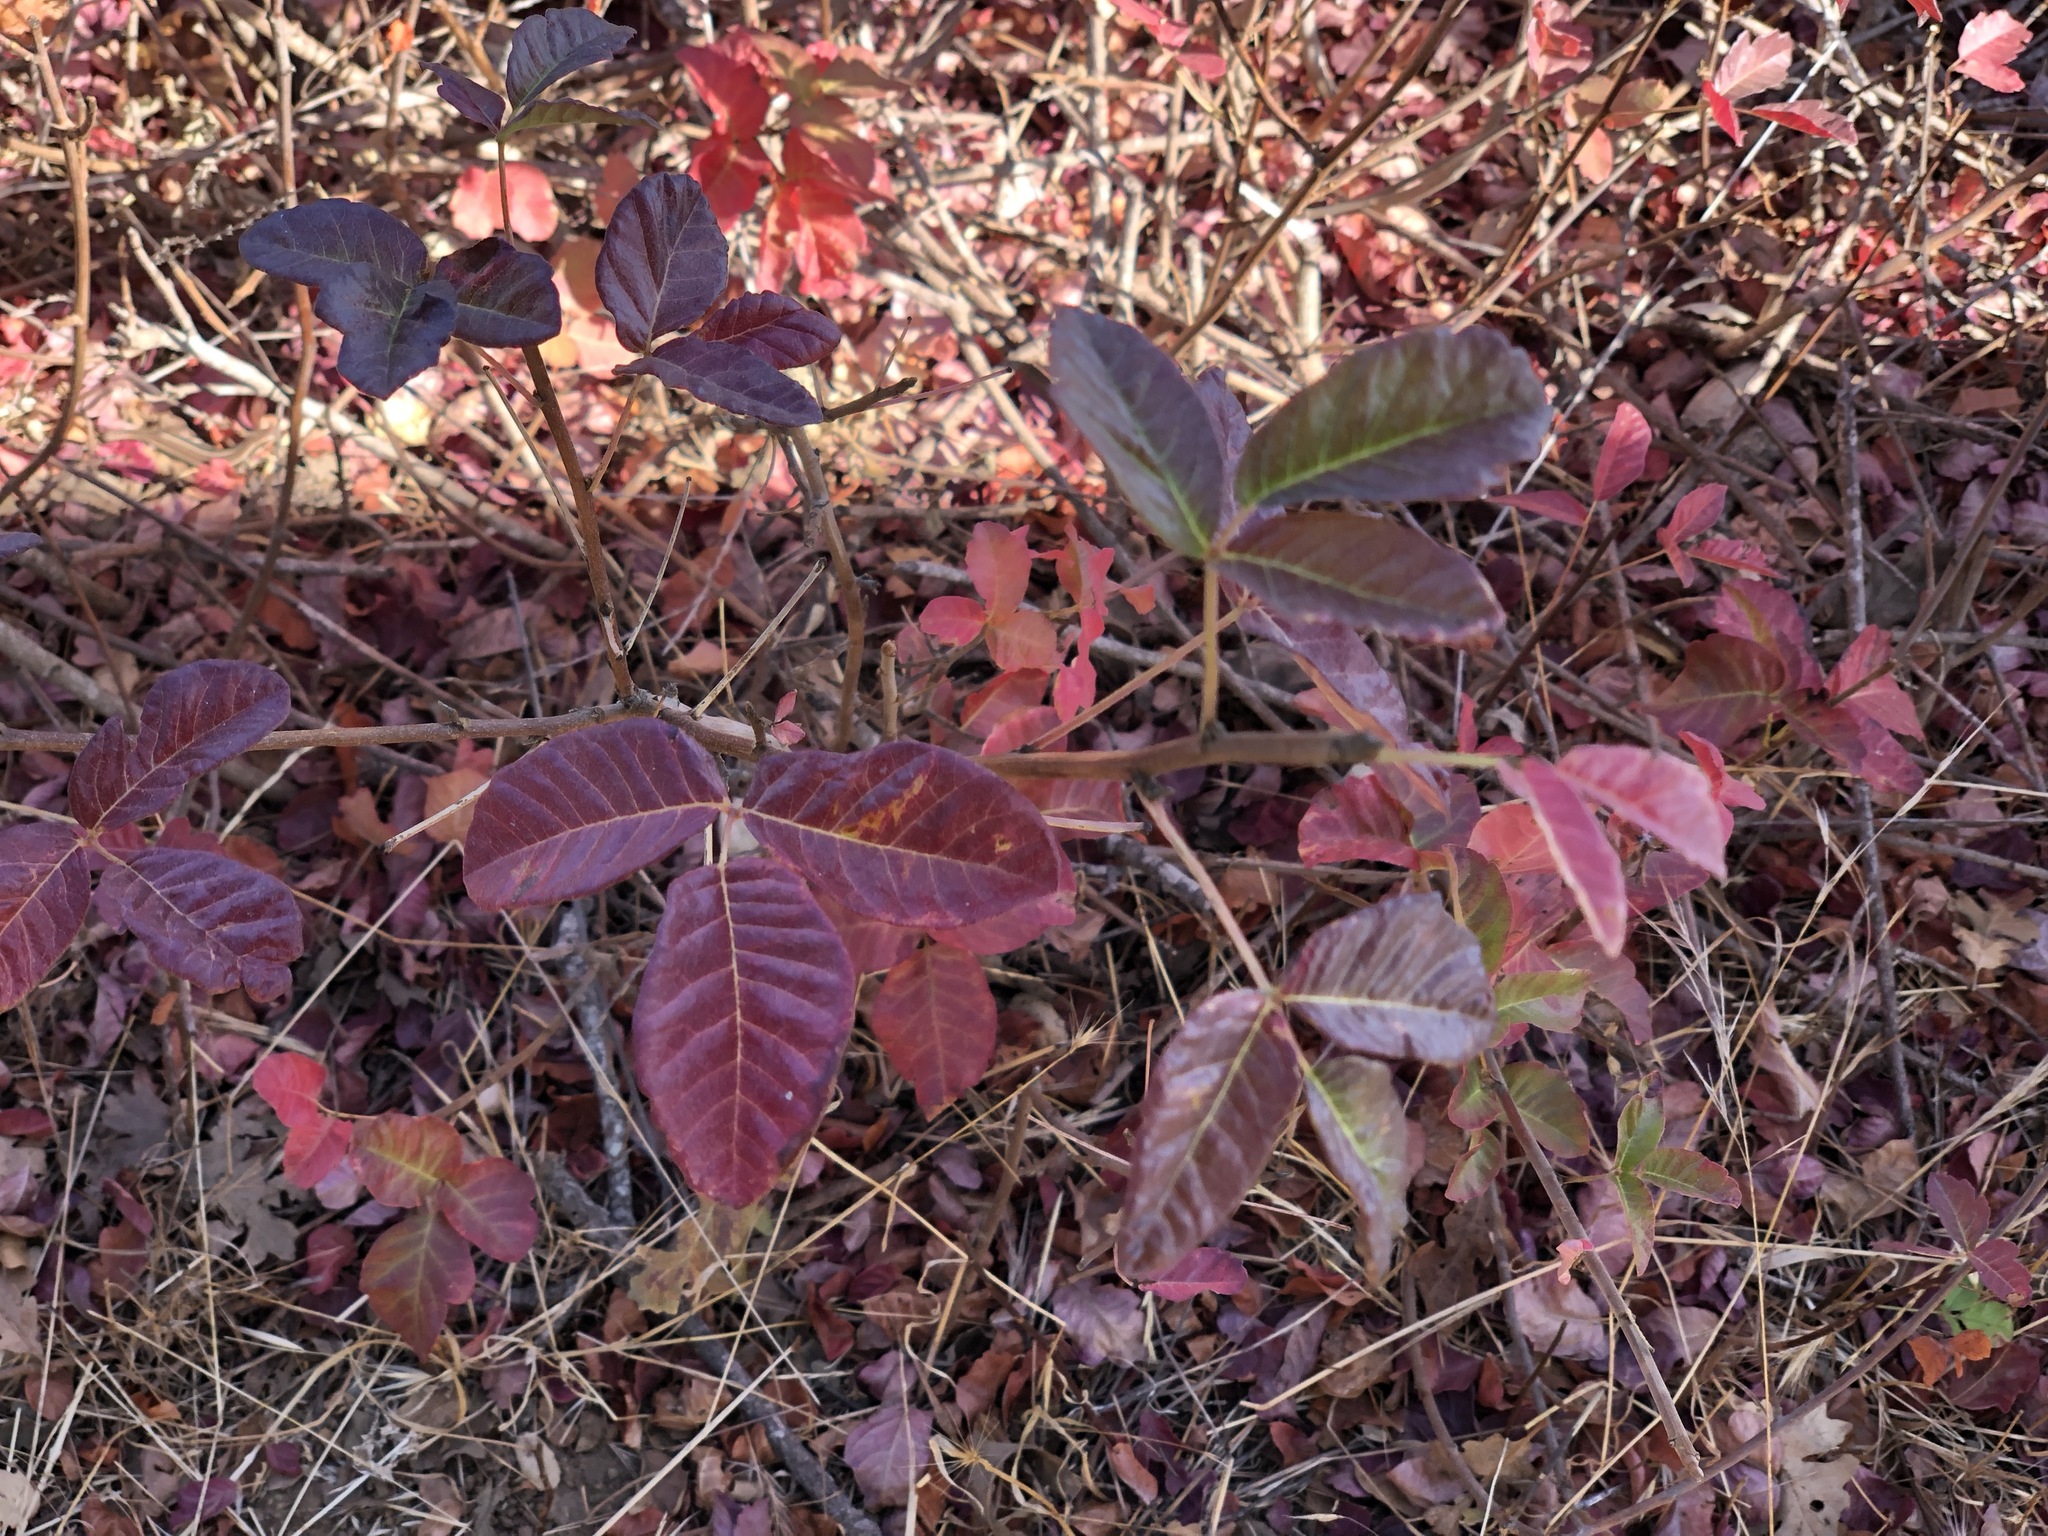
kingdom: Plantae
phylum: Tracheophyta
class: Magnoliopsida
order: Sapindales
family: Anacardiaceae
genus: Toxicodendron
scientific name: Toxicodendron diversilobum
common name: Pacific poison-oak
